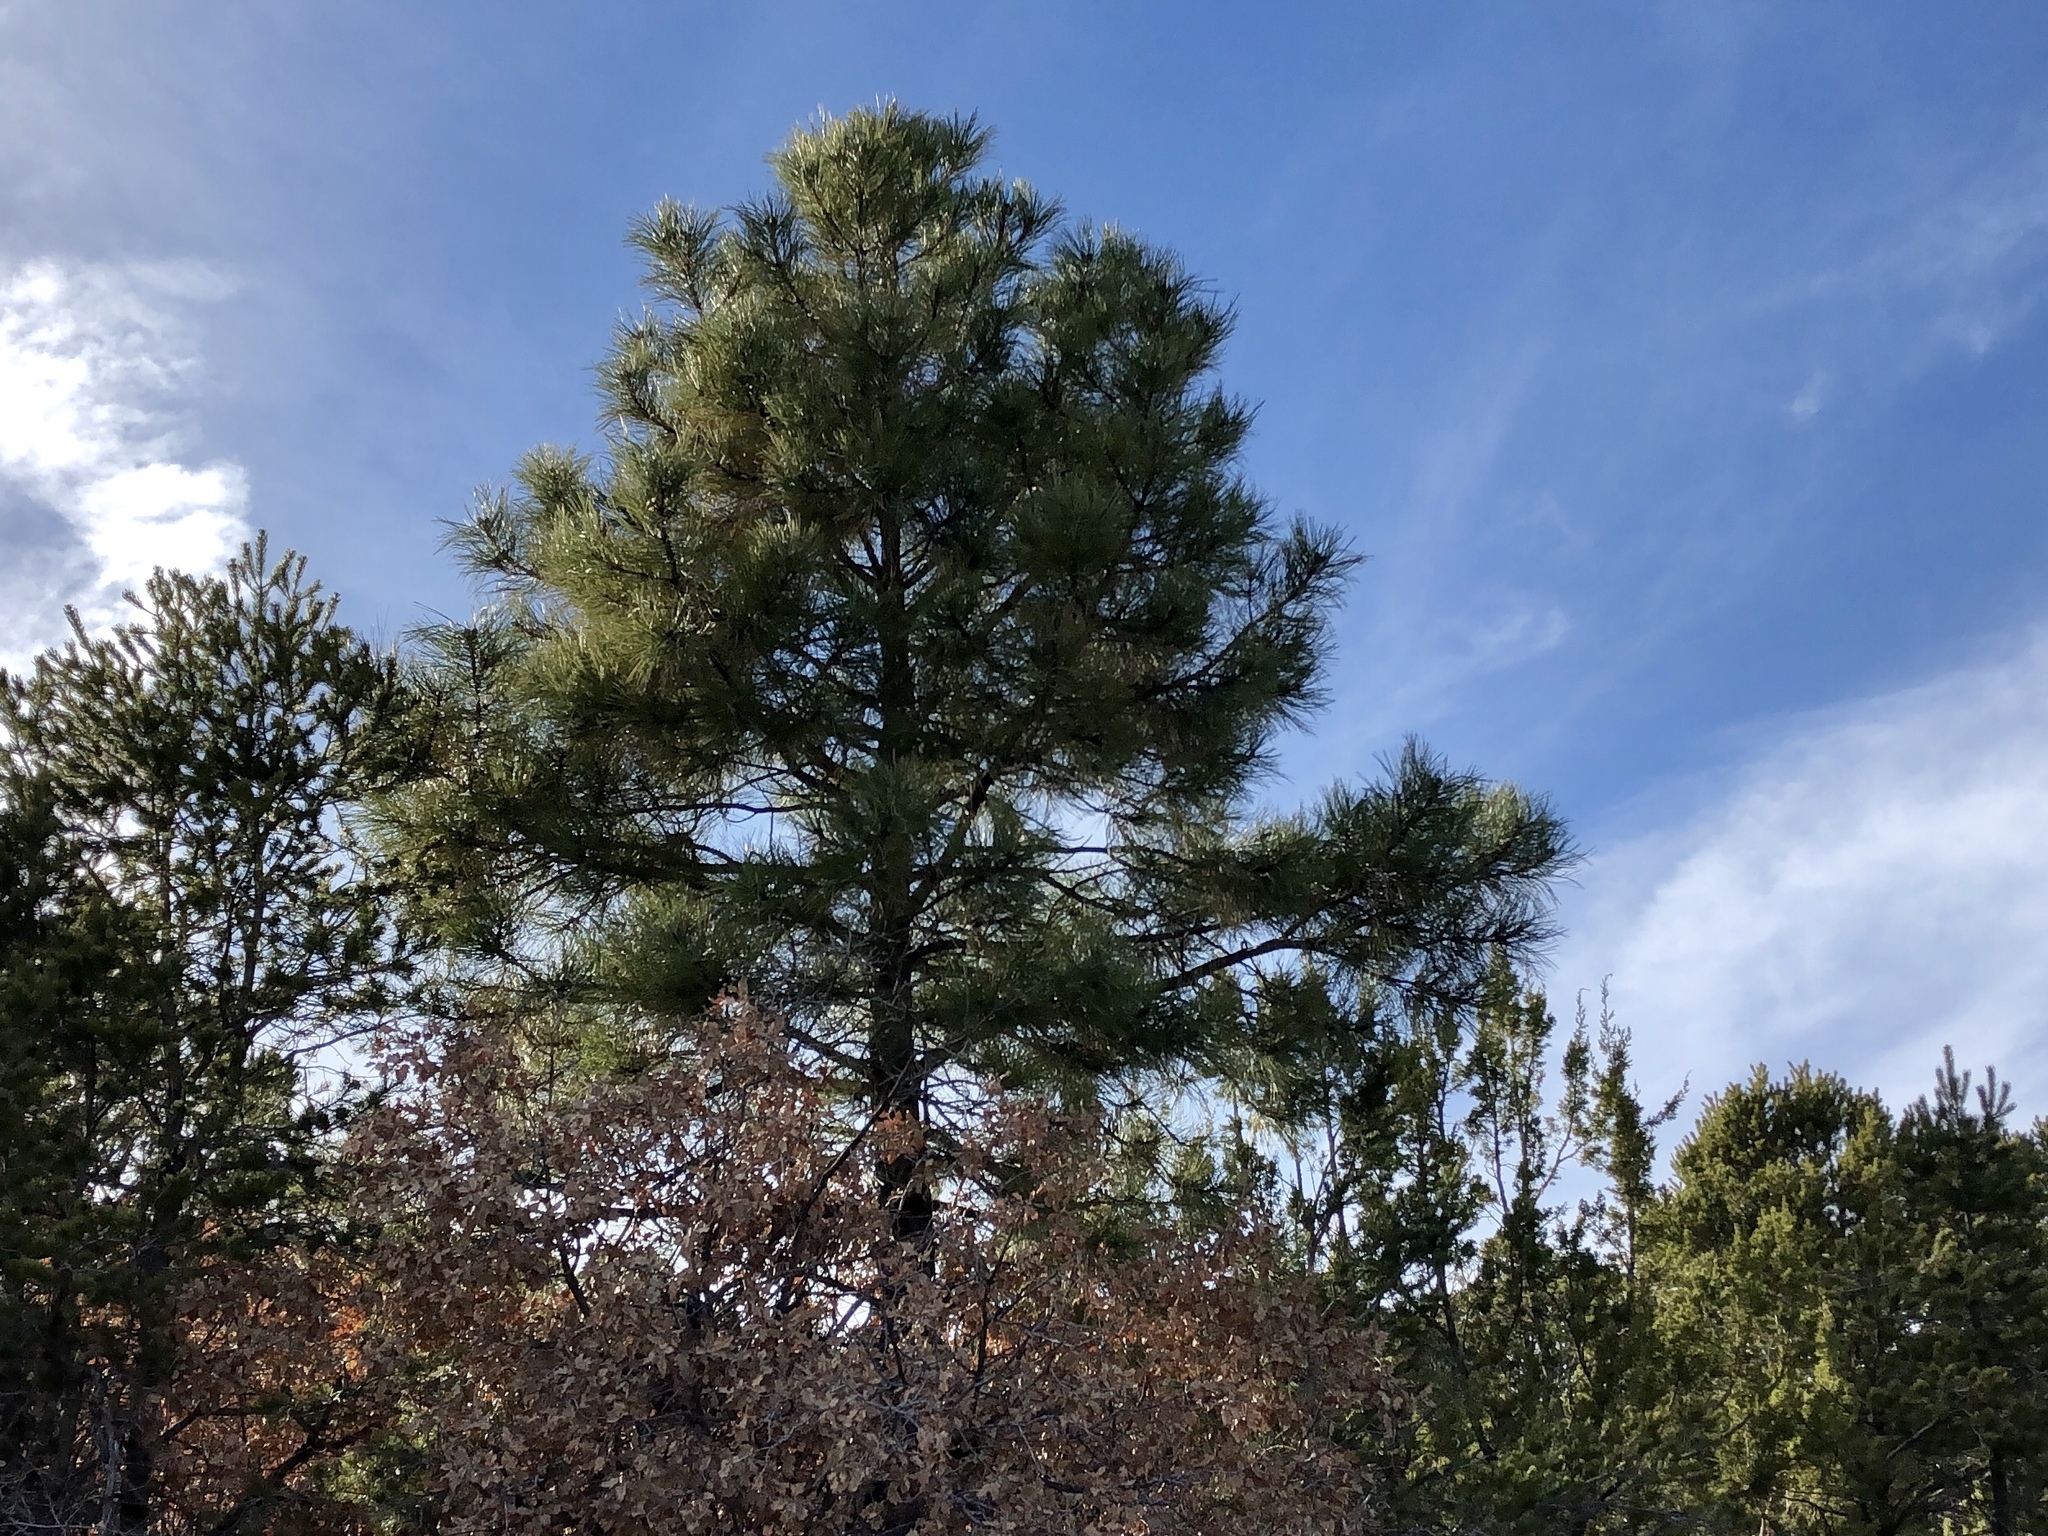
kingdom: Plantae
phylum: Tracheophyta
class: Pinopsida
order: Pinales
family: Pinaceae
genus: Pinus
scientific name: Pinus ponderosa
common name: Western yellow-pine
